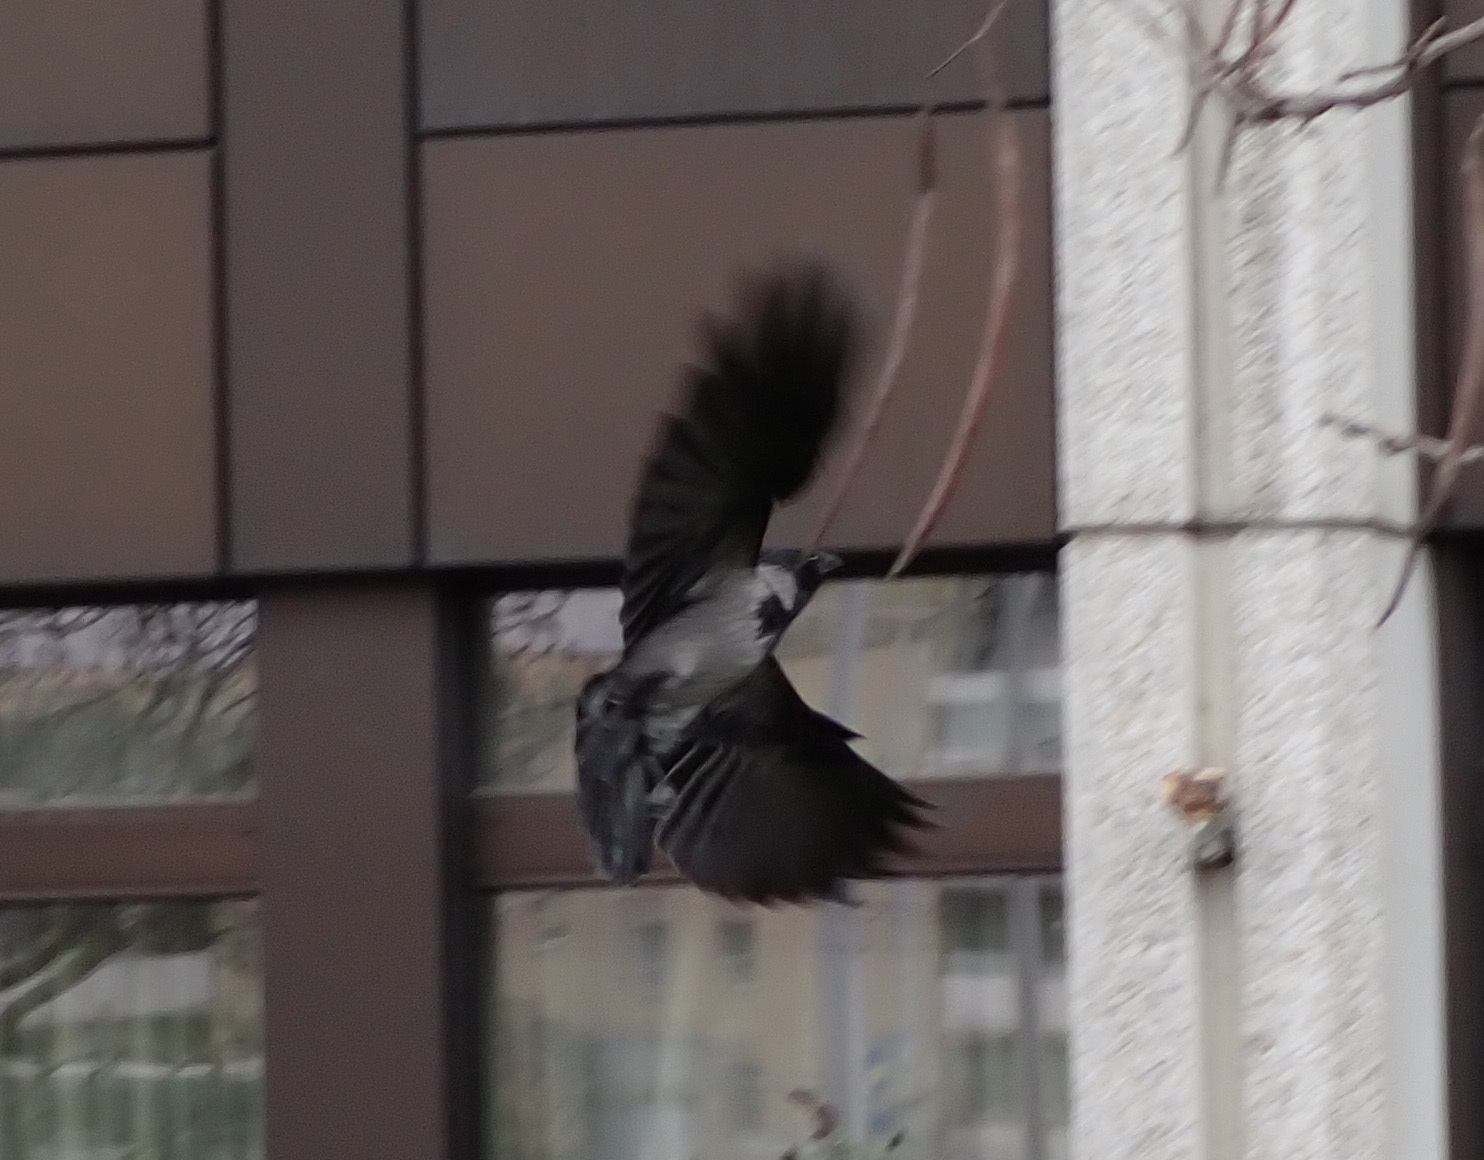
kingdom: Animalia
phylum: Chordata
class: Aves
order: Passeriformes
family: Corvidae
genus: Corvus
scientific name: Corvus cornix
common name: Hooded crow
